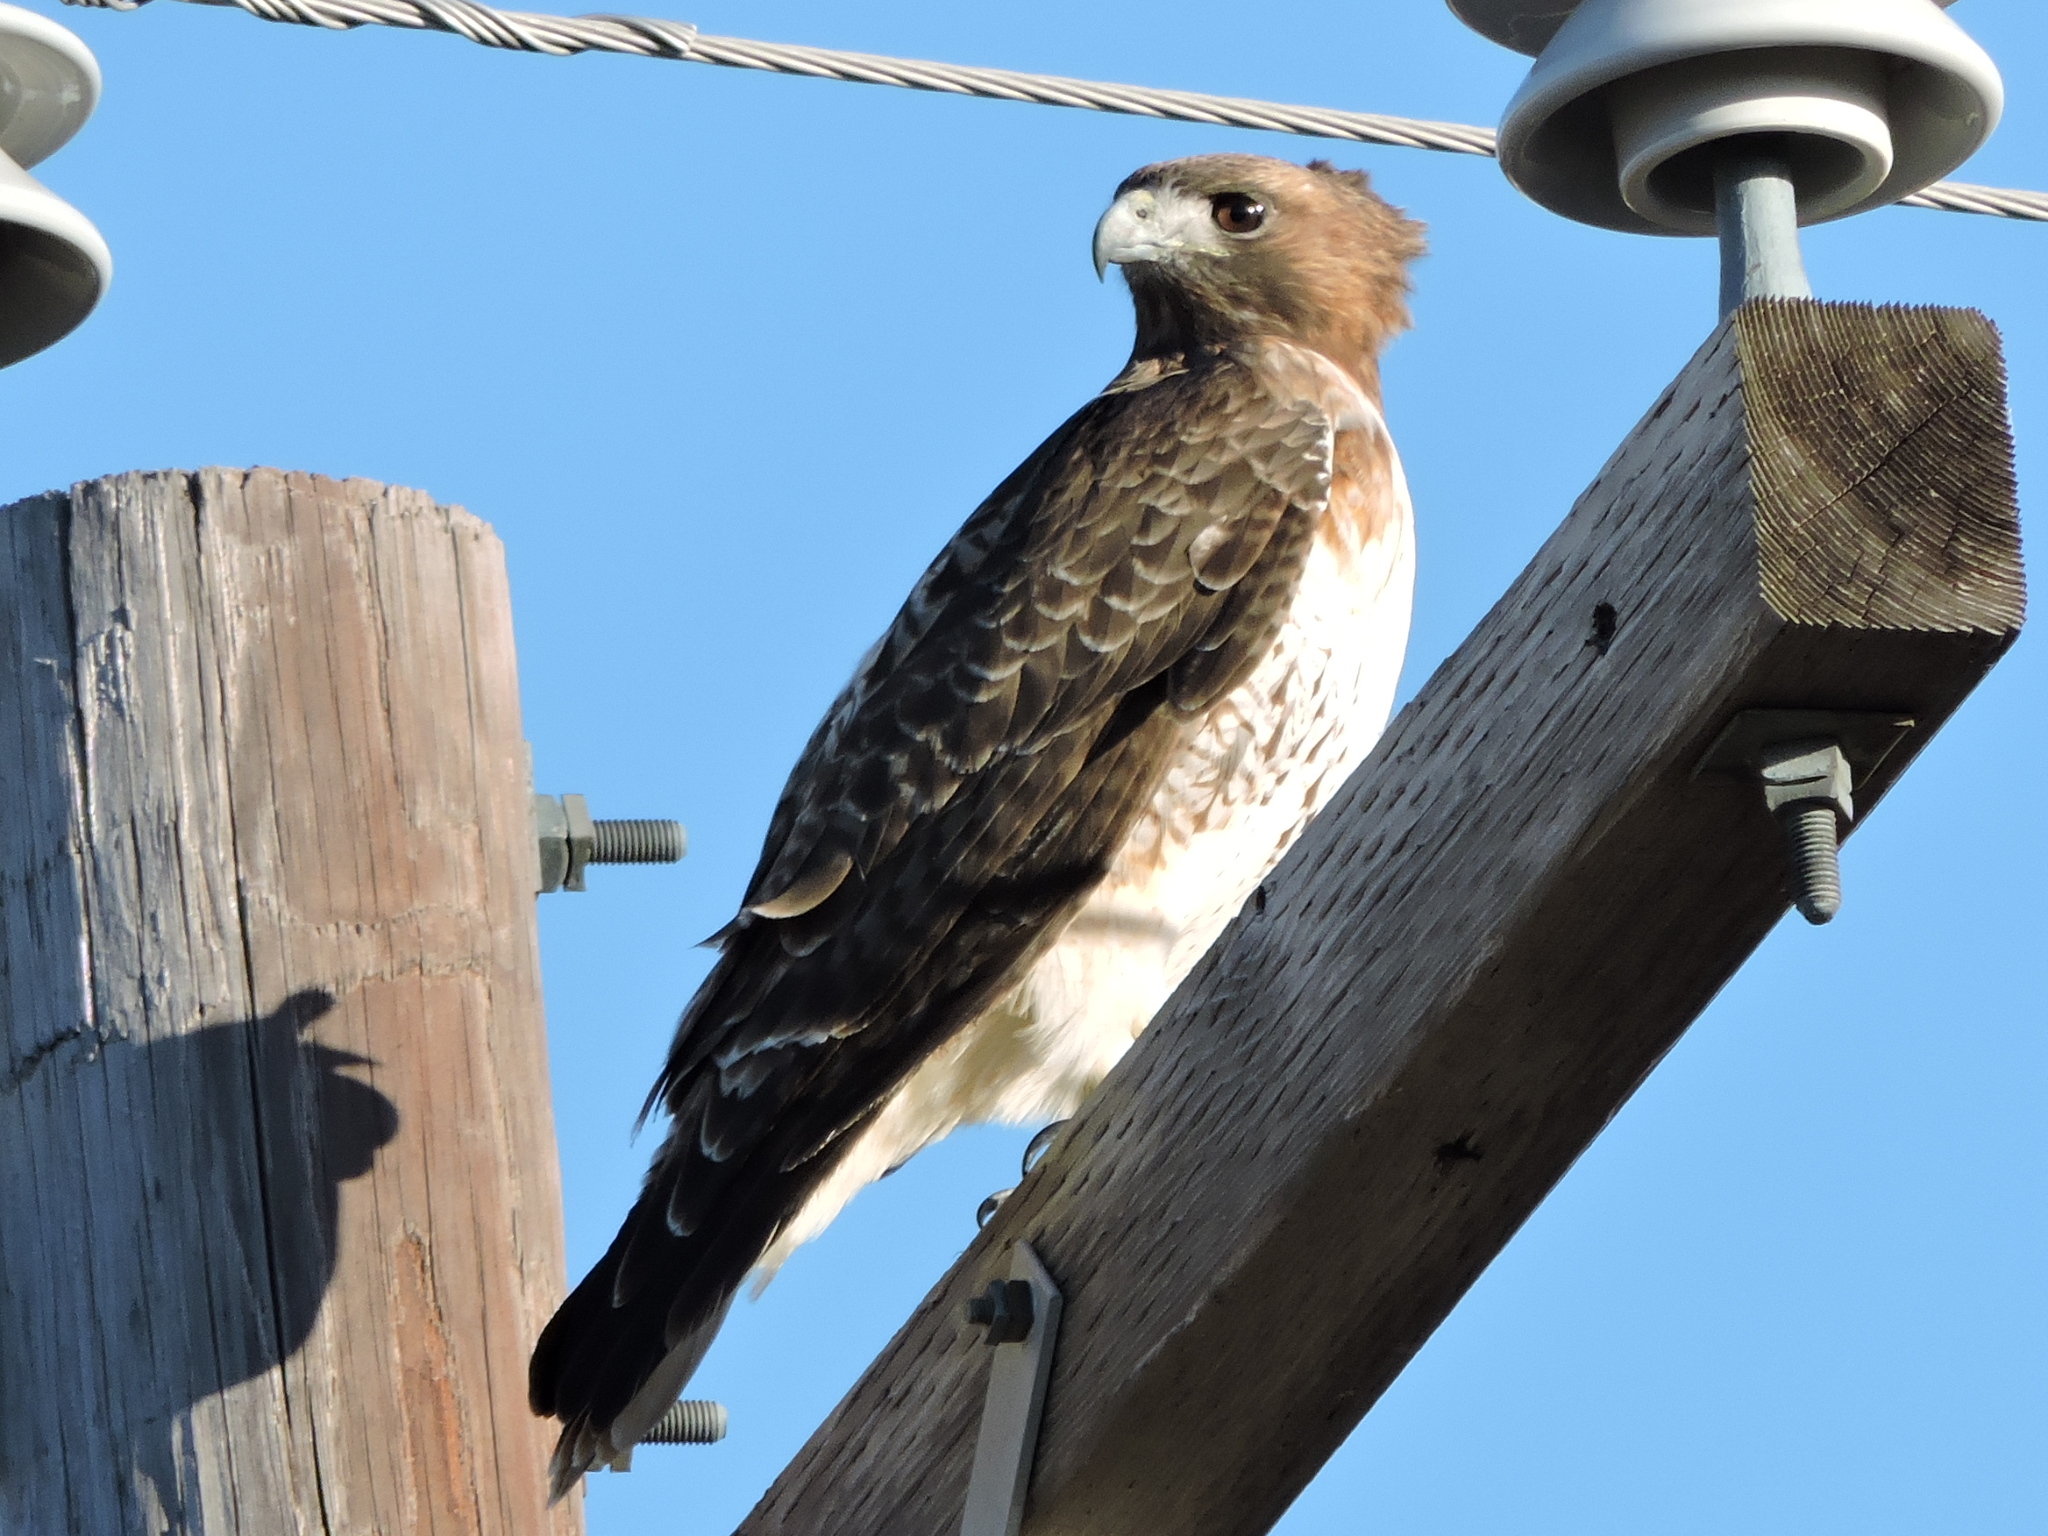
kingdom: Animalia
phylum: Chordata
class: Aves
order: Accipitriformes
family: Accipitridae
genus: Buteo
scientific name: Buteo jamaicensis
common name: Red-tailed hawk
